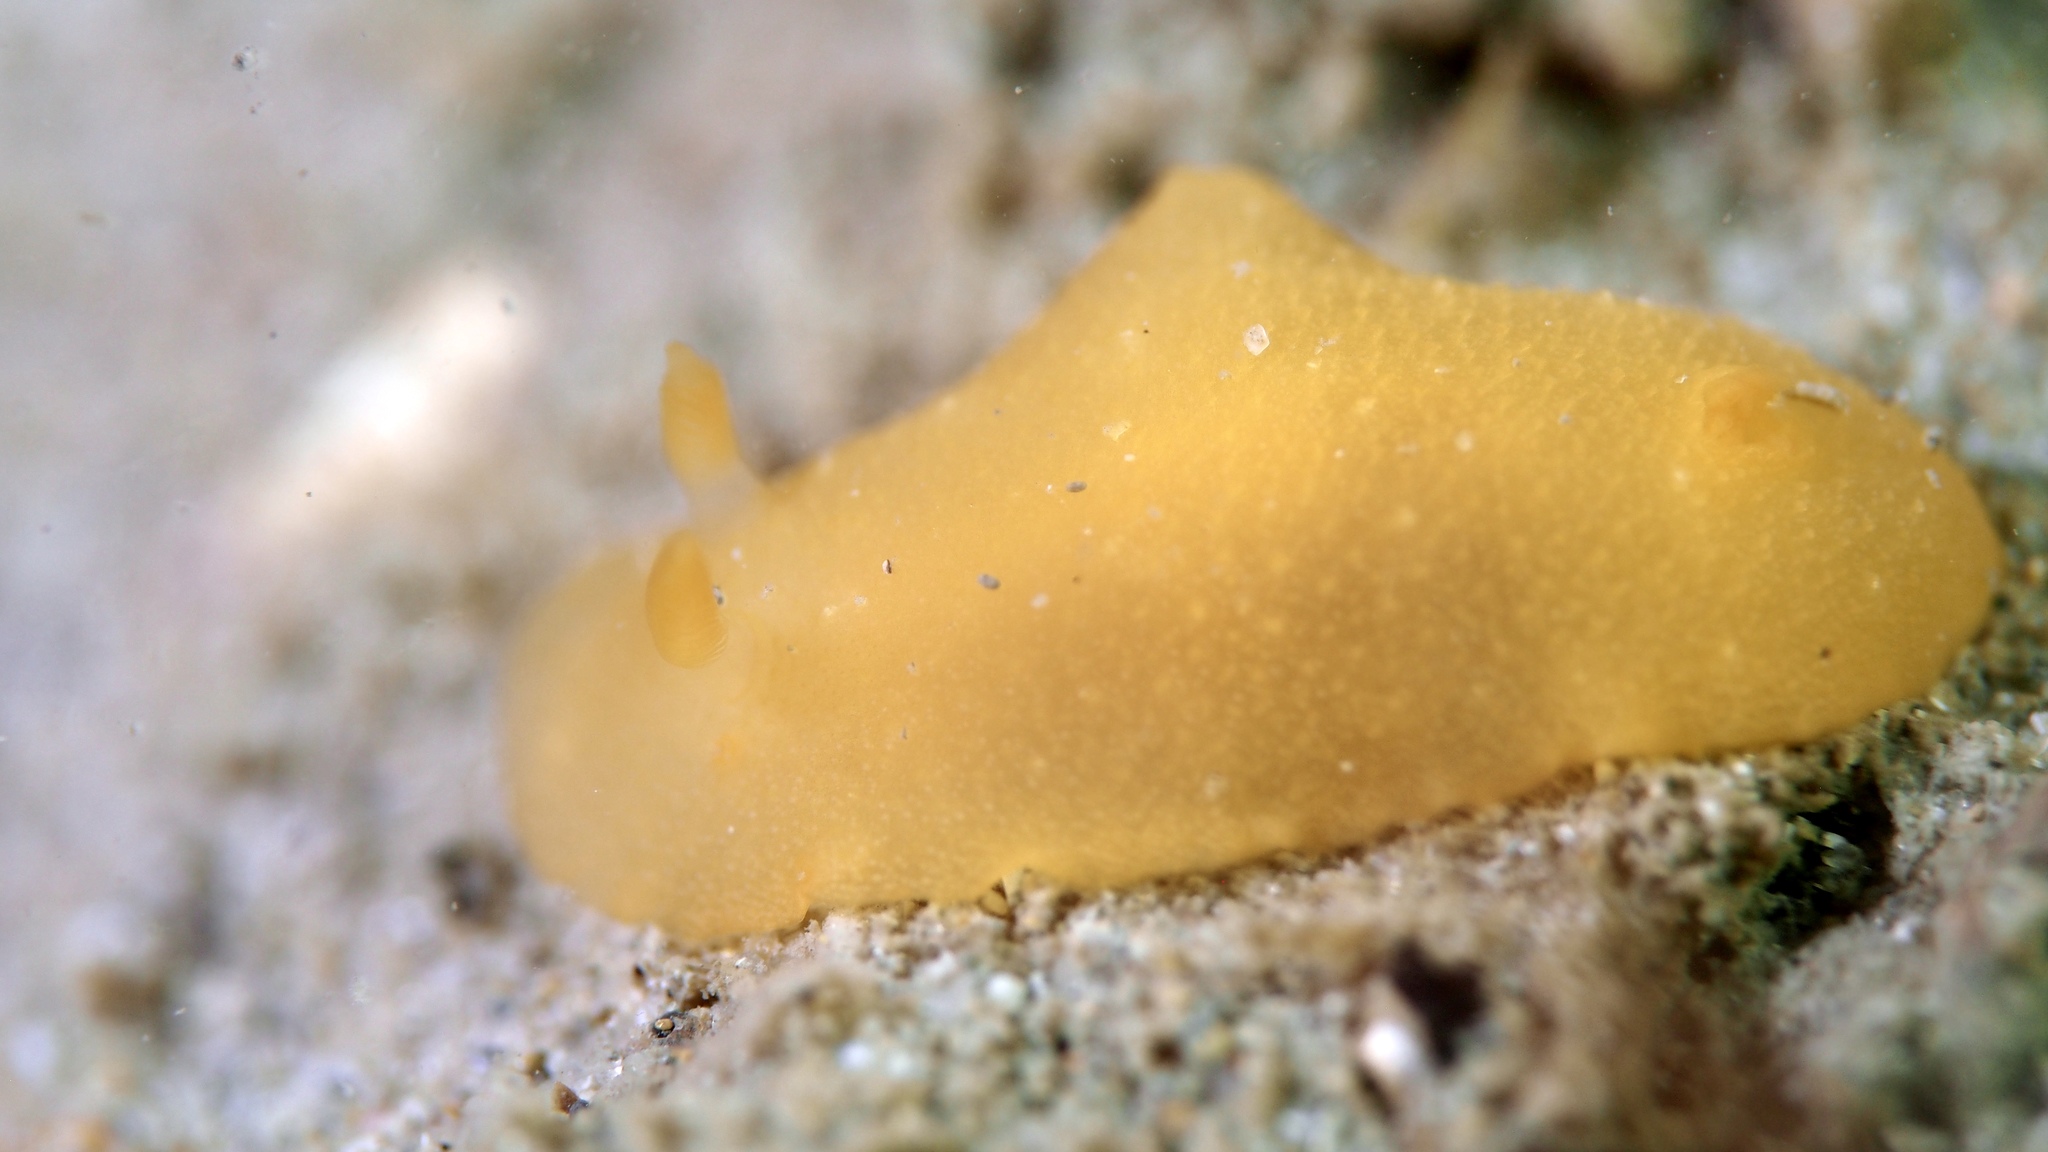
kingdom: Animalia
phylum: Mollusca
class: Gastropoda
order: Nudibranchia
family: Dendrodorididae
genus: Doriopsilla
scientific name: Doriopsilla carneola
